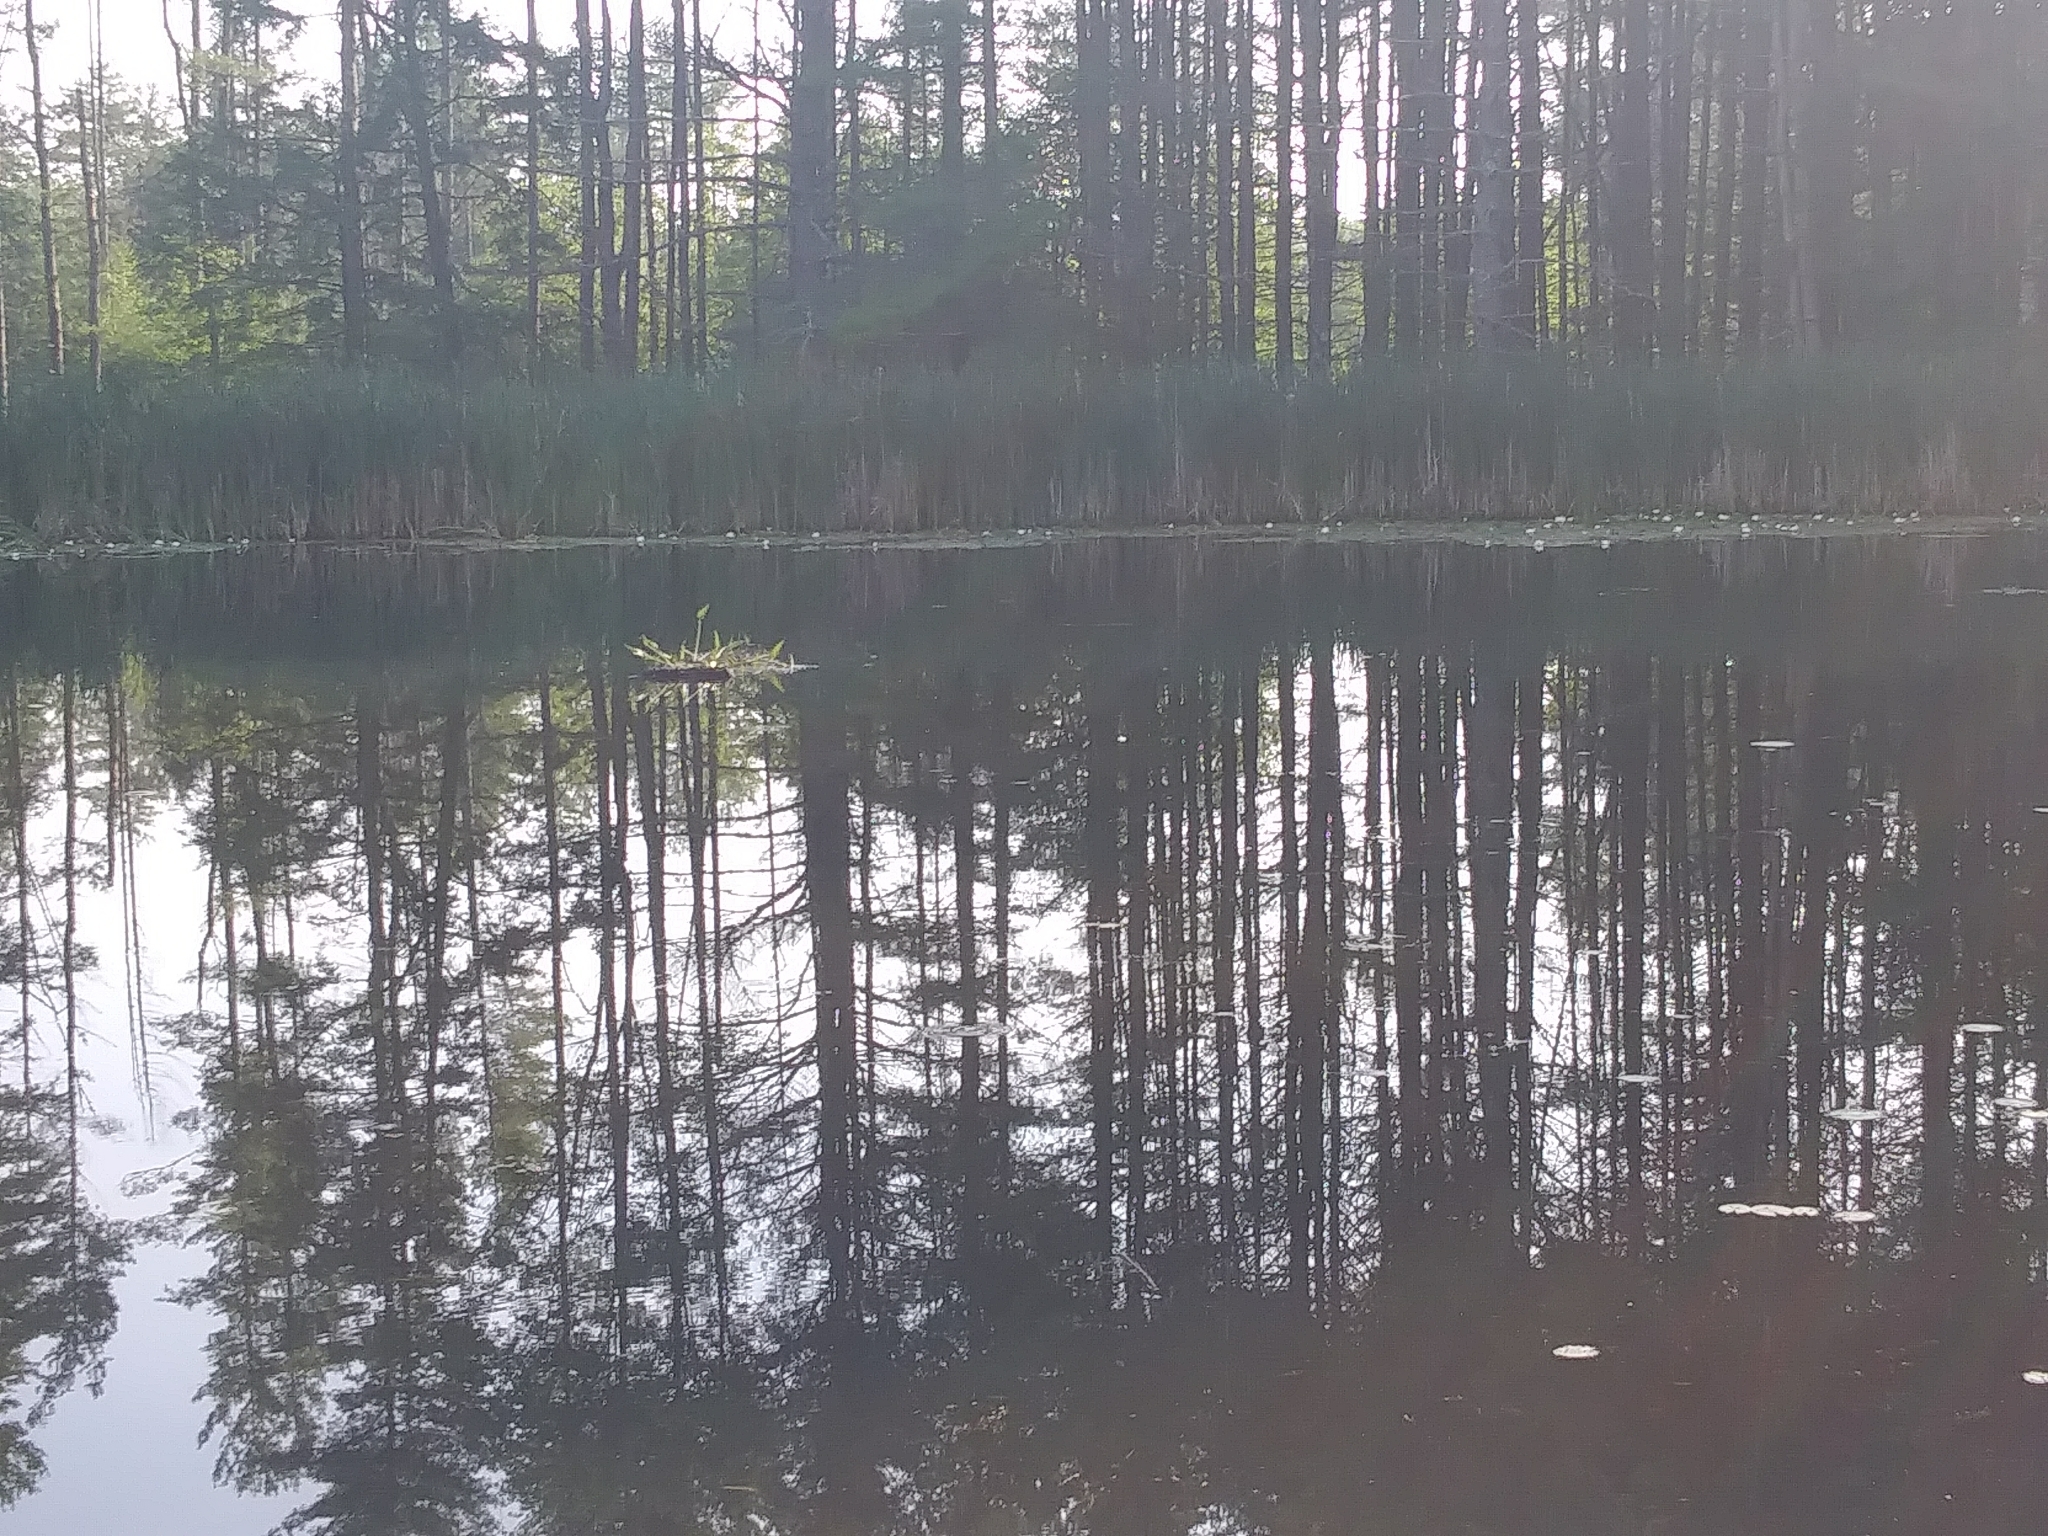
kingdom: Plantae
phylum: Tracheophyta
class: Liliopsida
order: Commelinales
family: Pontederiaceae
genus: Pontederia
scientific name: Pontederia cordata
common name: Pickerelweed
